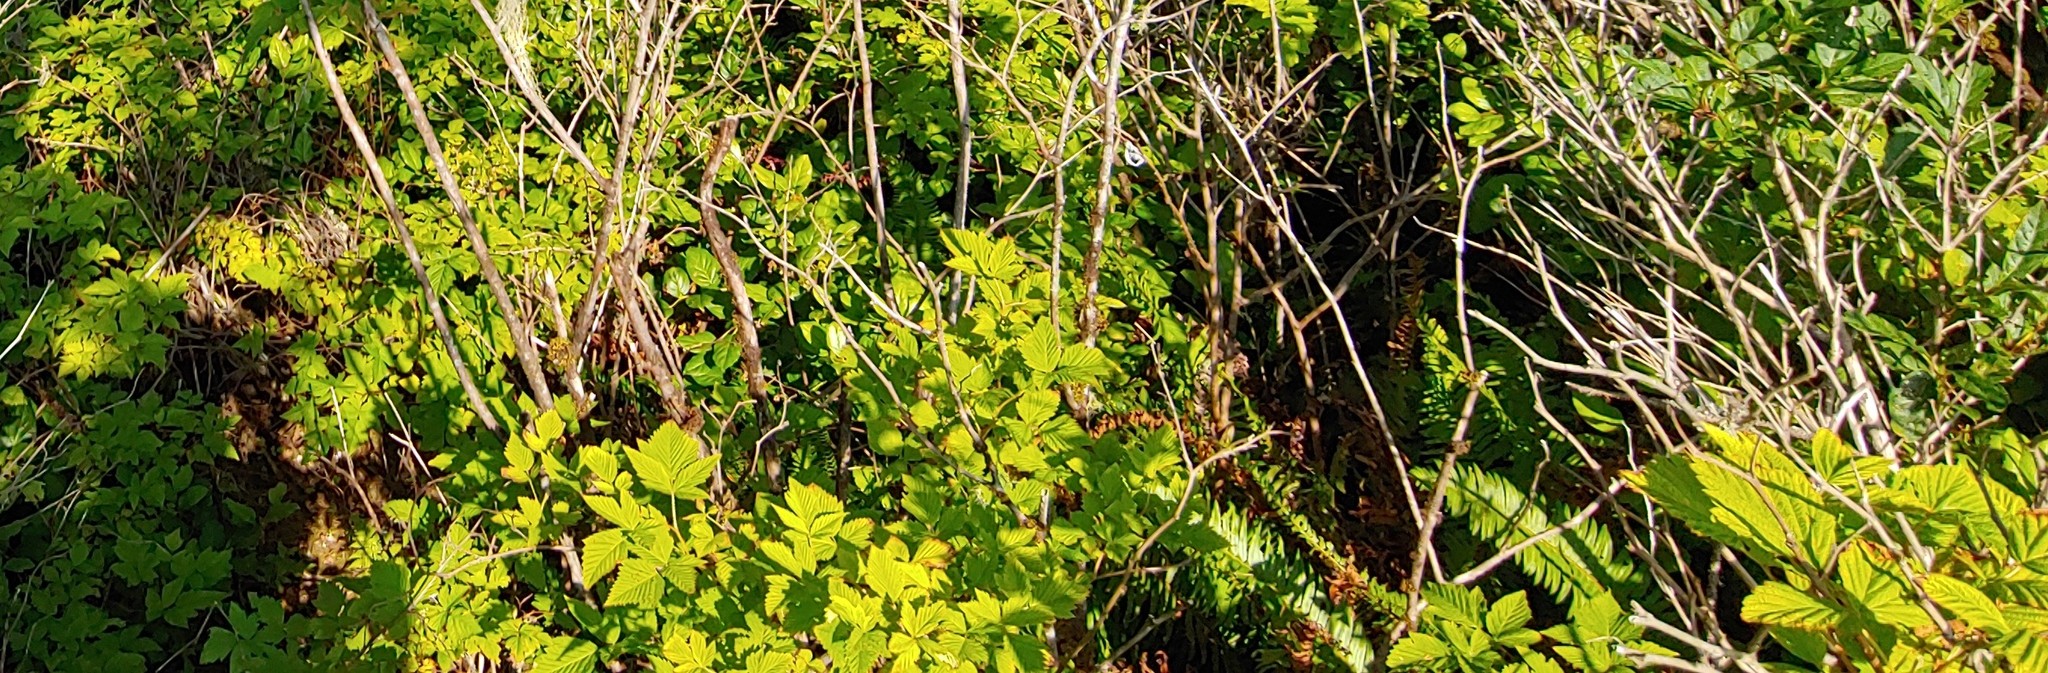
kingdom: Plantae
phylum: Tracheophyta
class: Magnoliopsida
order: Rosales
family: Rosaceae
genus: Rubus
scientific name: Rubus spectabilis
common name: Salmonberry
